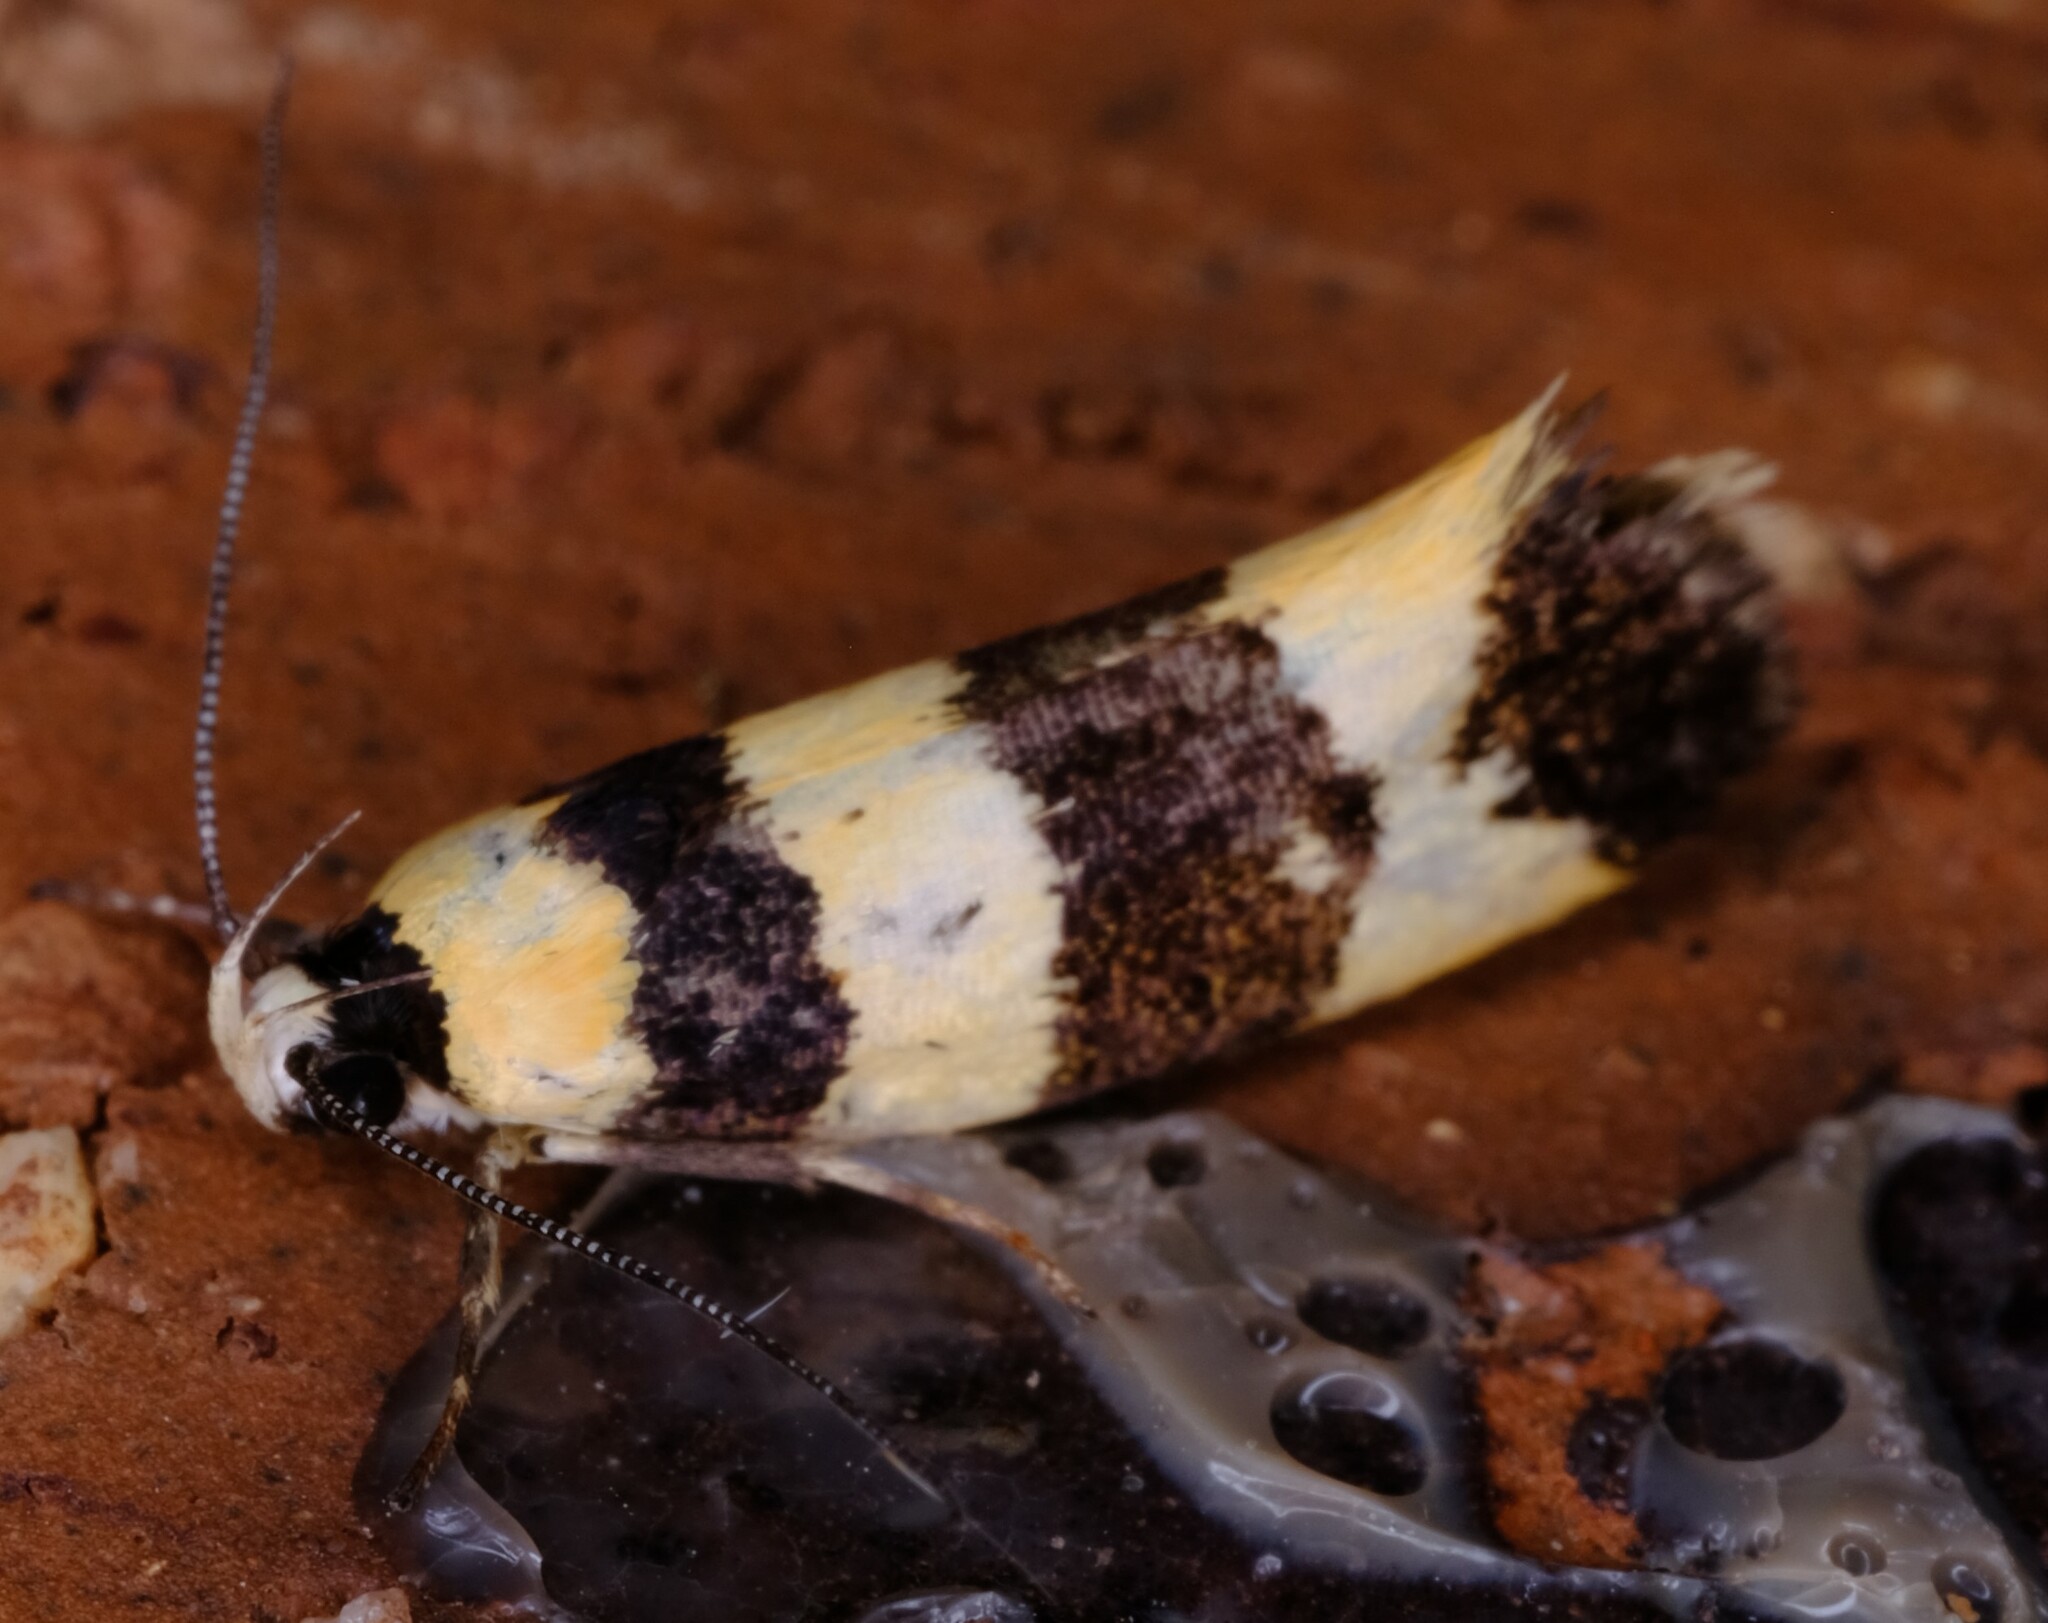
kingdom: Animalia
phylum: Arthropoda
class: Insecta
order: Lepidoptera
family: Xyloryctidae
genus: Lichenaula
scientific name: Lichenaula arisema
